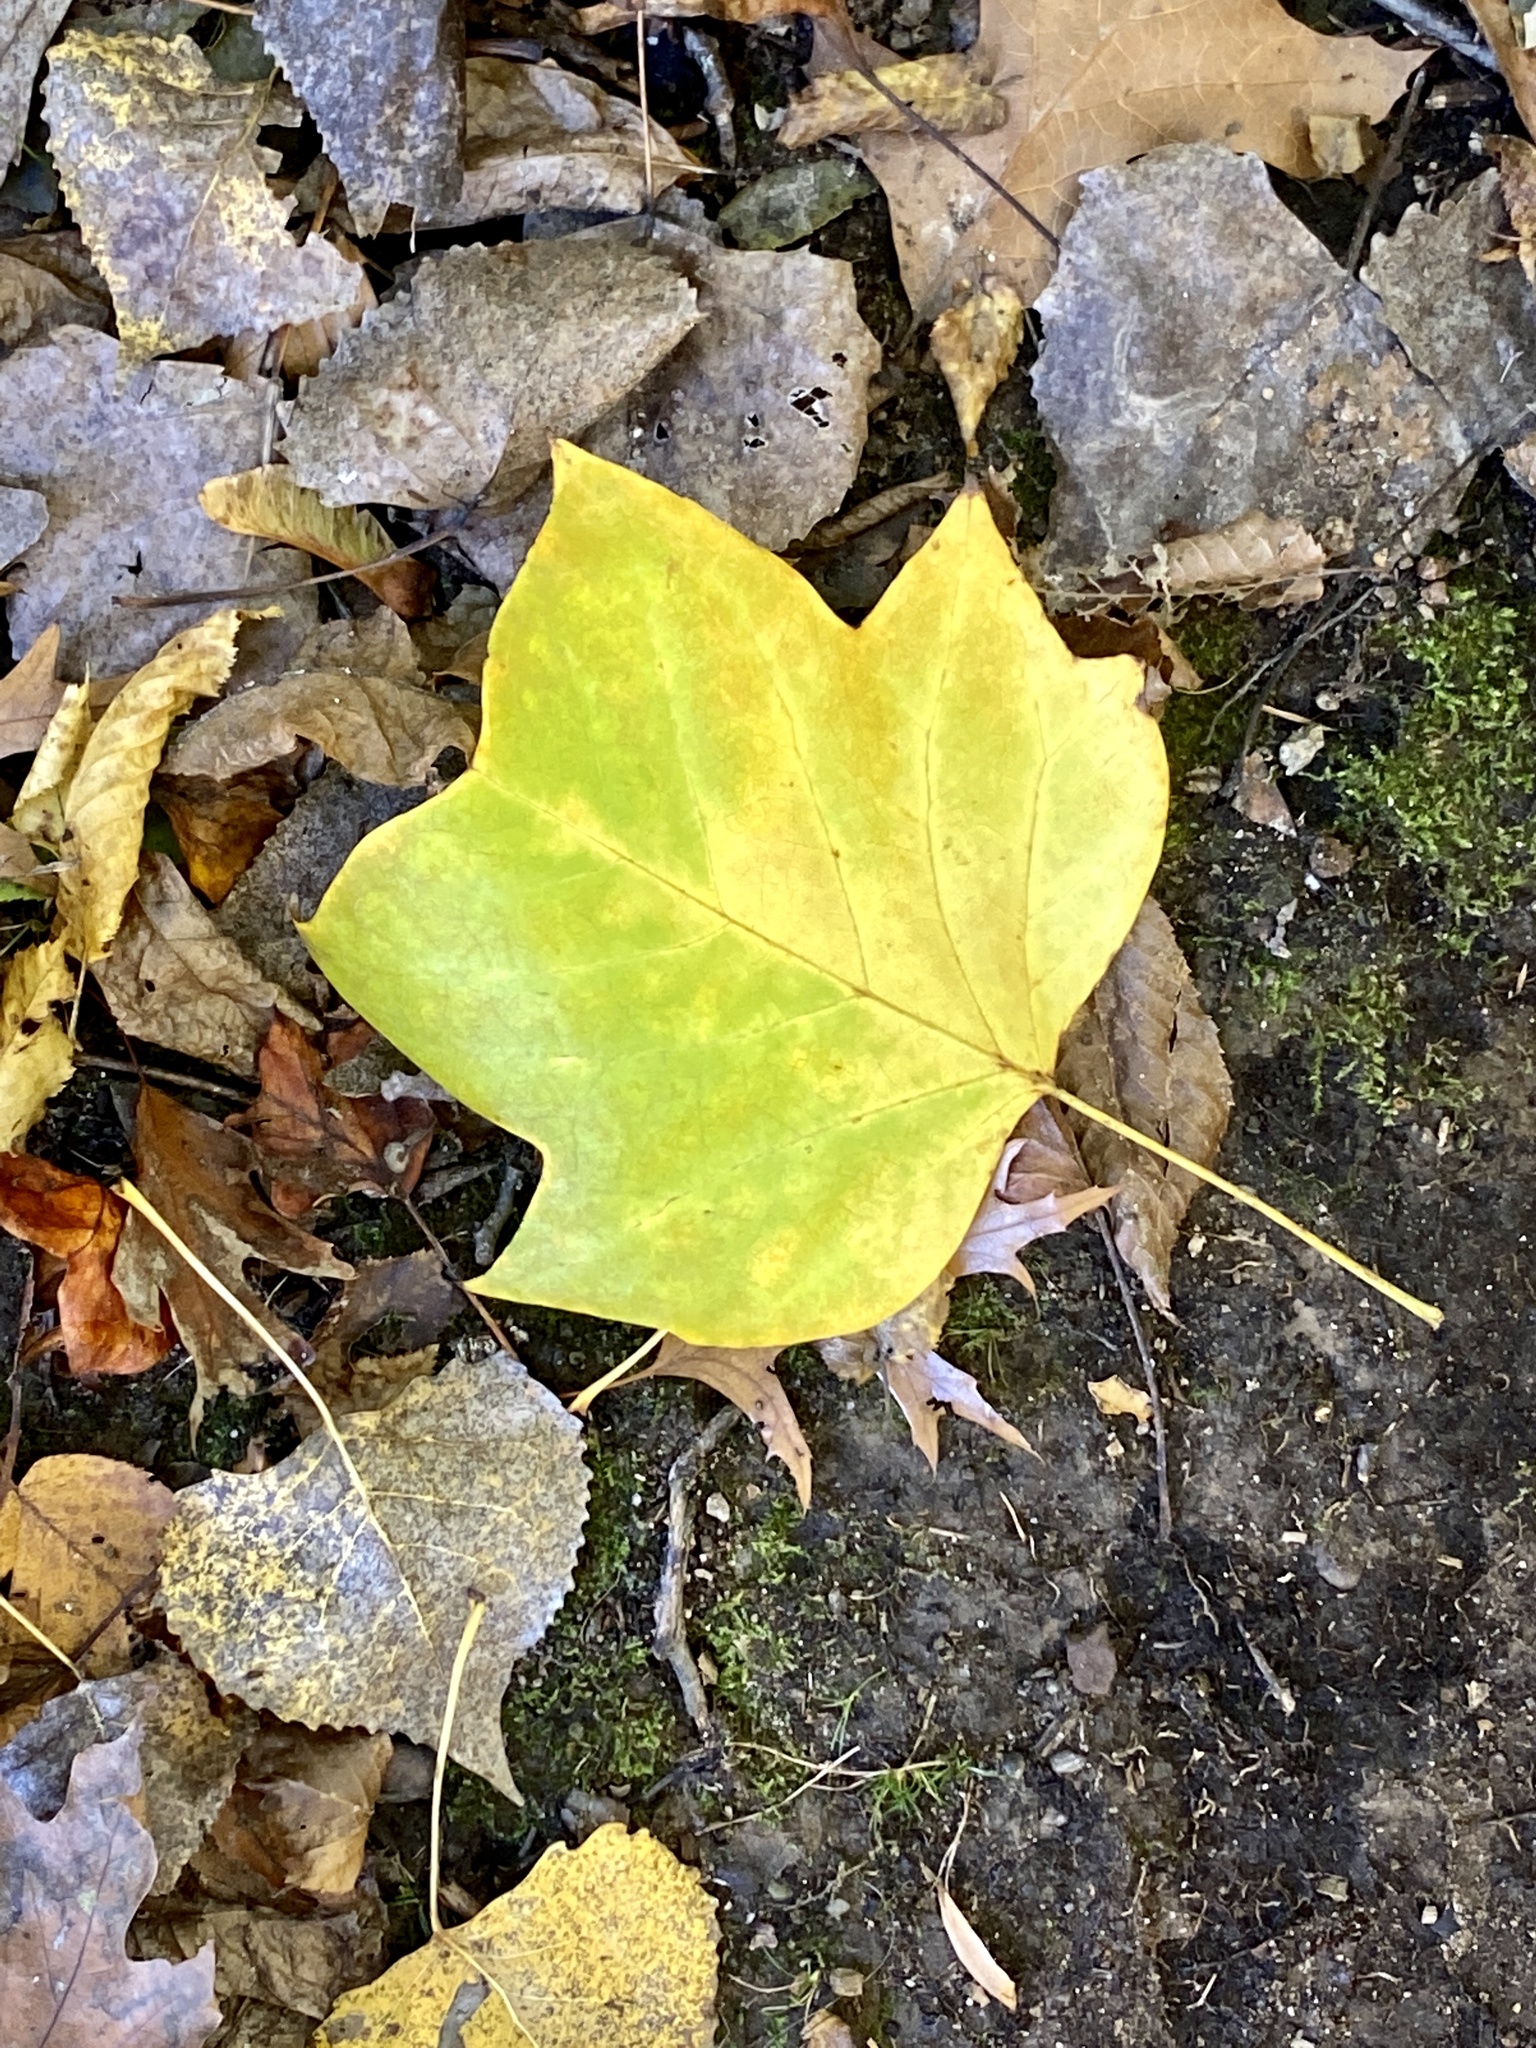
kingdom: Plantae
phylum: Tracheophyta
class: Magnoliopsida
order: Magnoliales
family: Magnoliaceae
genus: Liriodendron
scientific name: Liriodendron tulipifera
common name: Tulip tree
